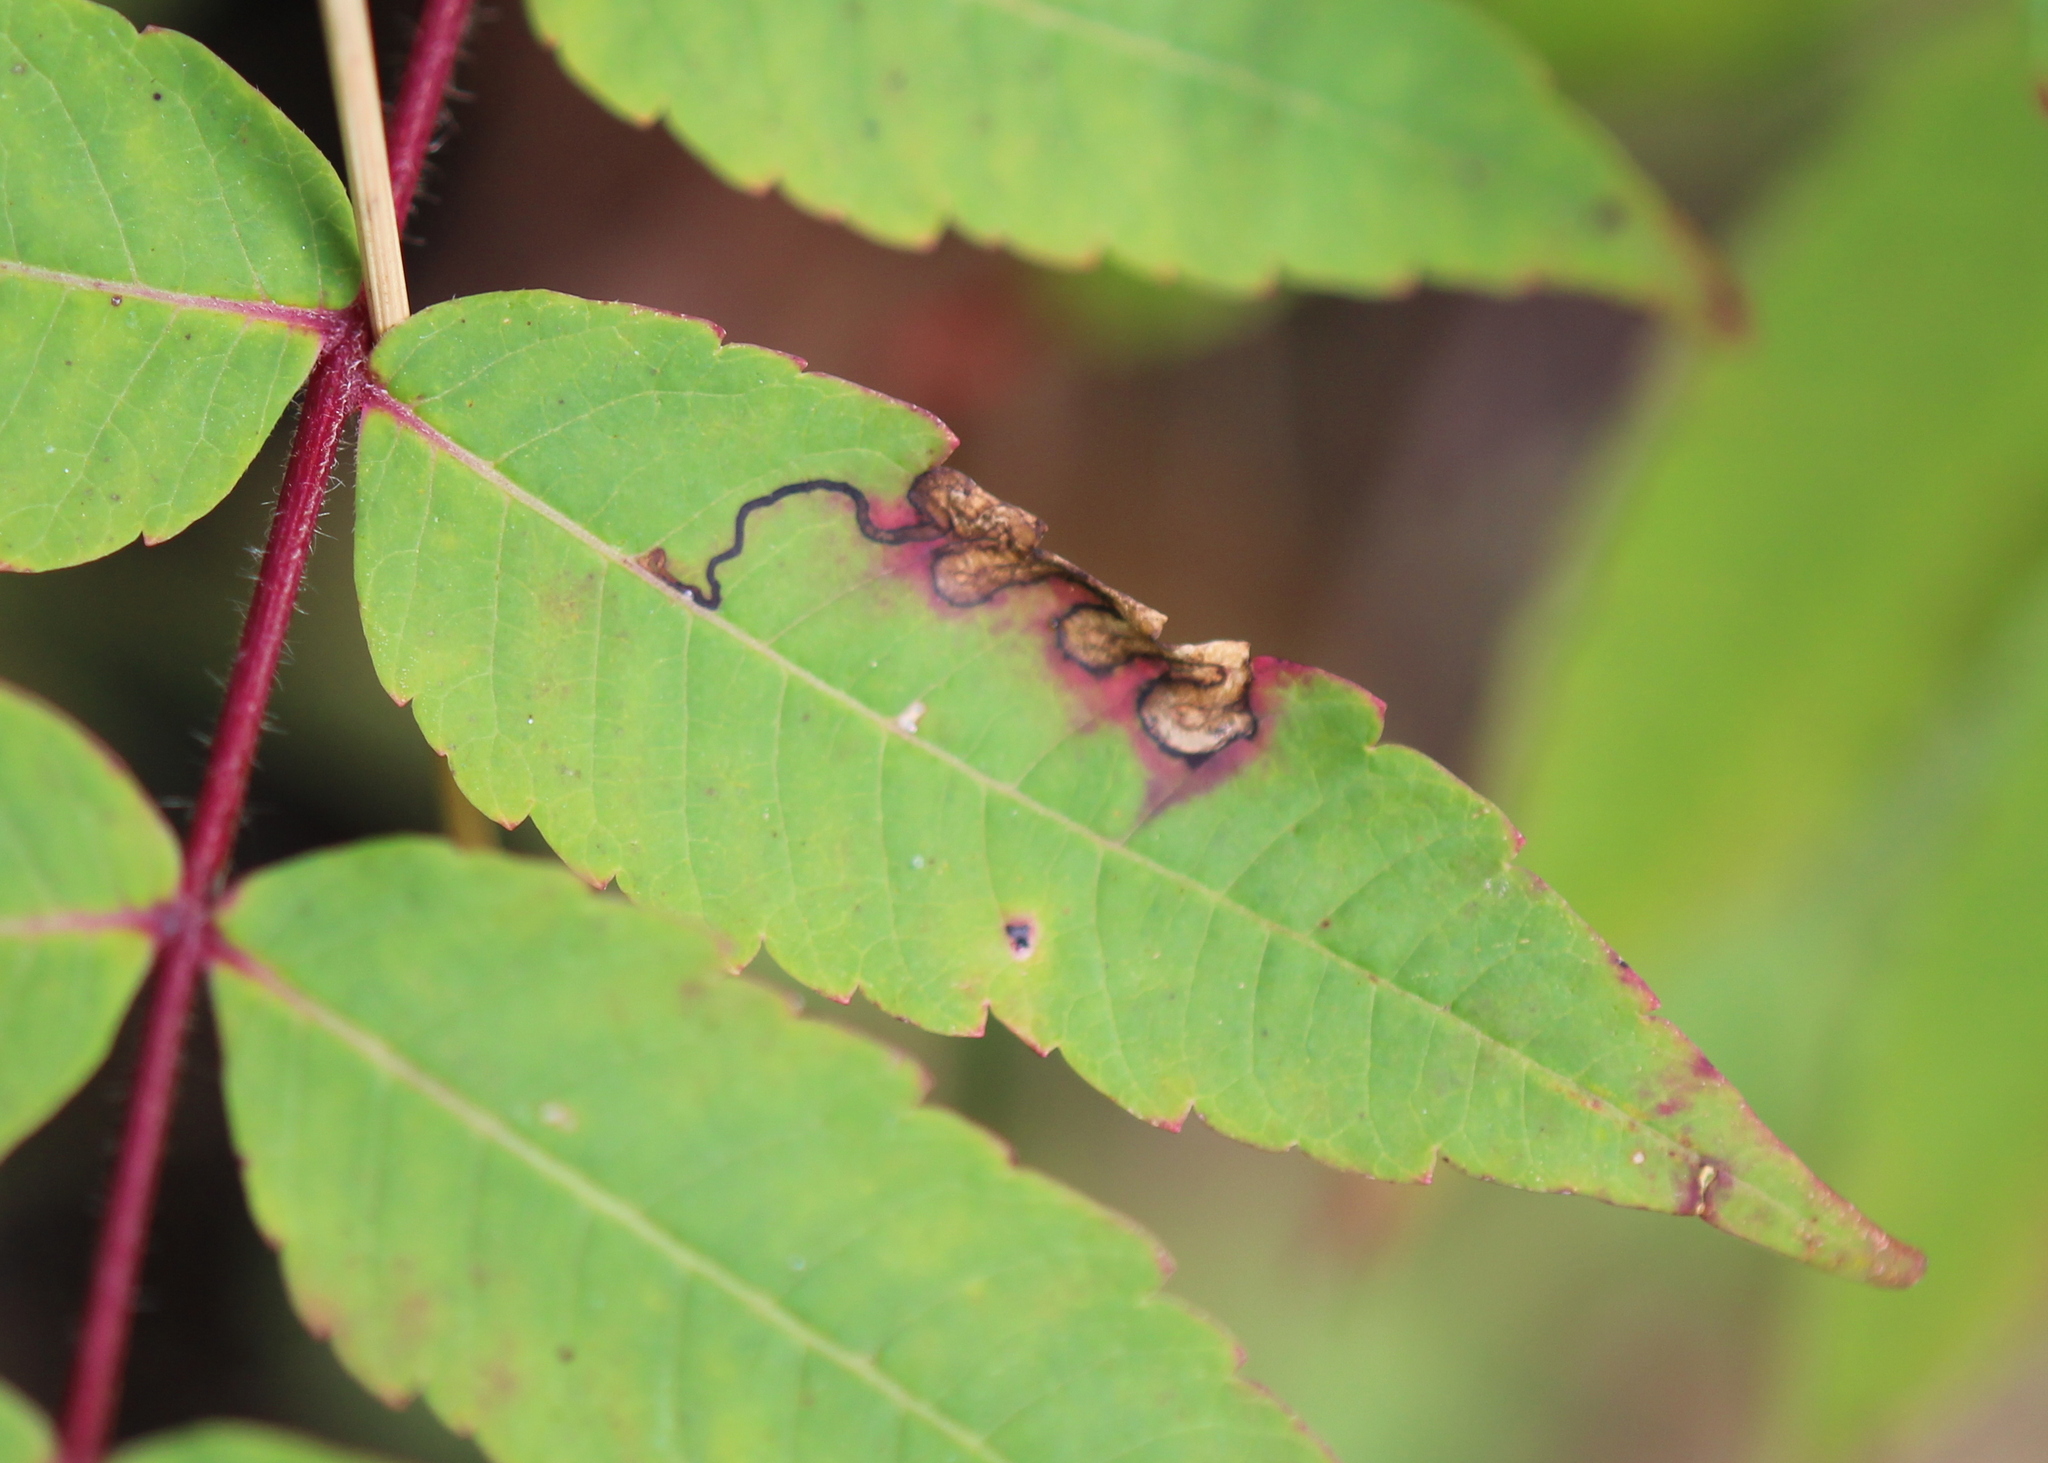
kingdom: Animalia
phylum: Arthropoda
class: Insecta
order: Lepidoptera
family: Nepticulidae
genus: Stigmella
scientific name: Stigmella intermedia
